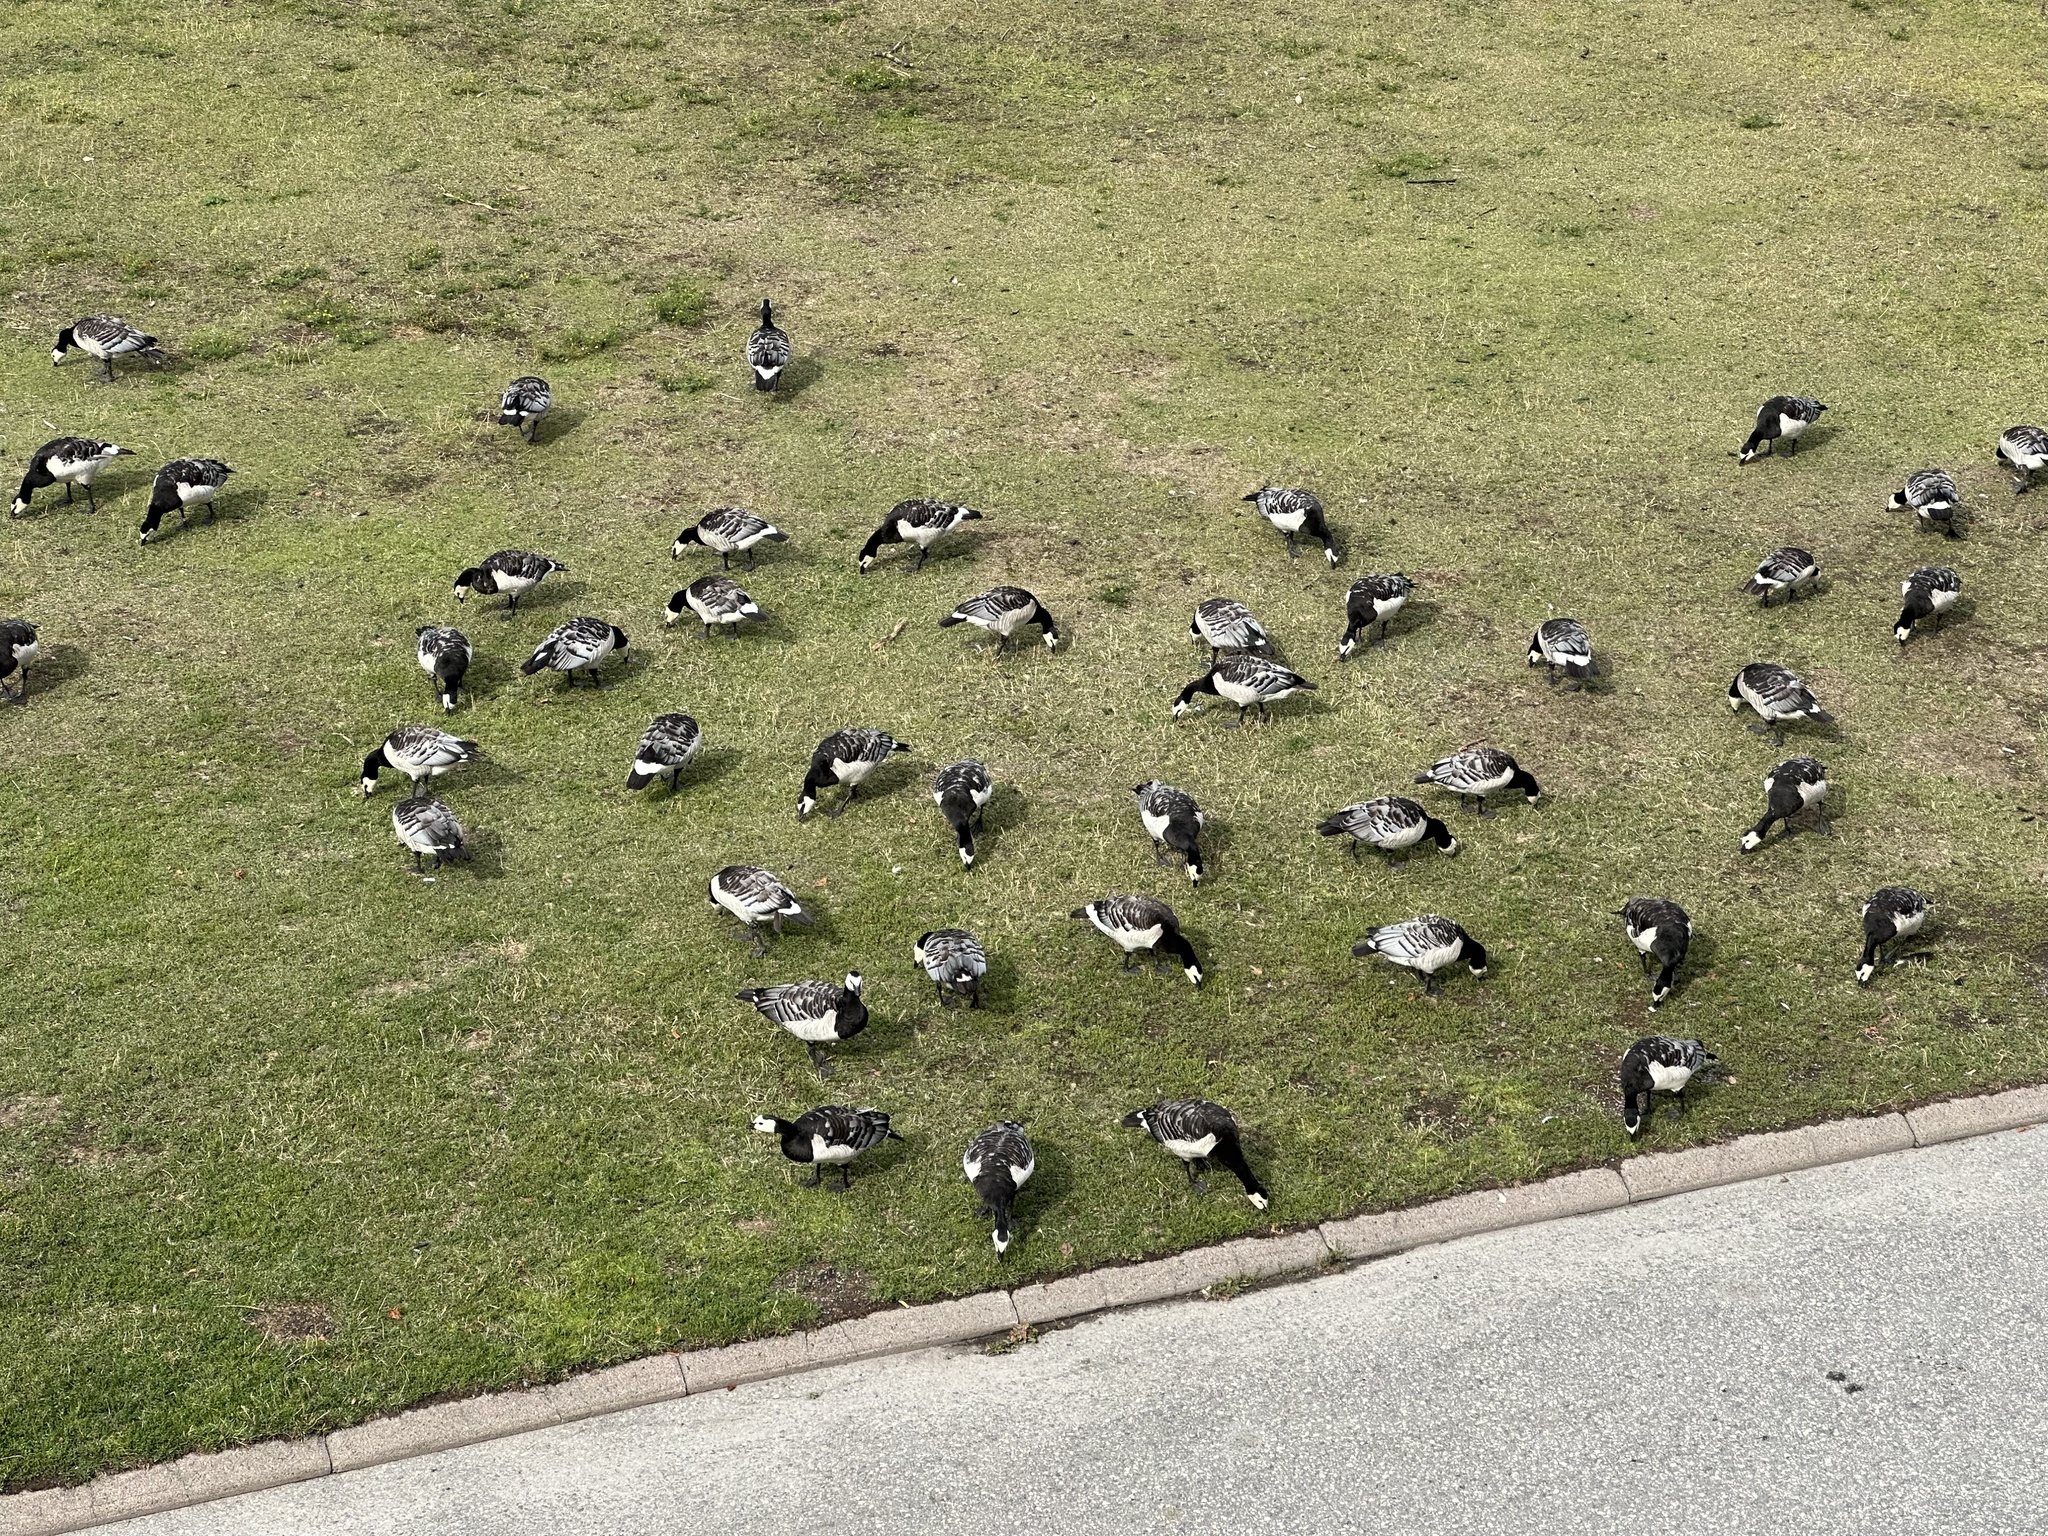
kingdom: Animalia
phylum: Chordata
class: Aves
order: Anseriformes
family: Anatidae
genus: Branta
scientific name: Branta leucopsis
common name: Barnacle goose
